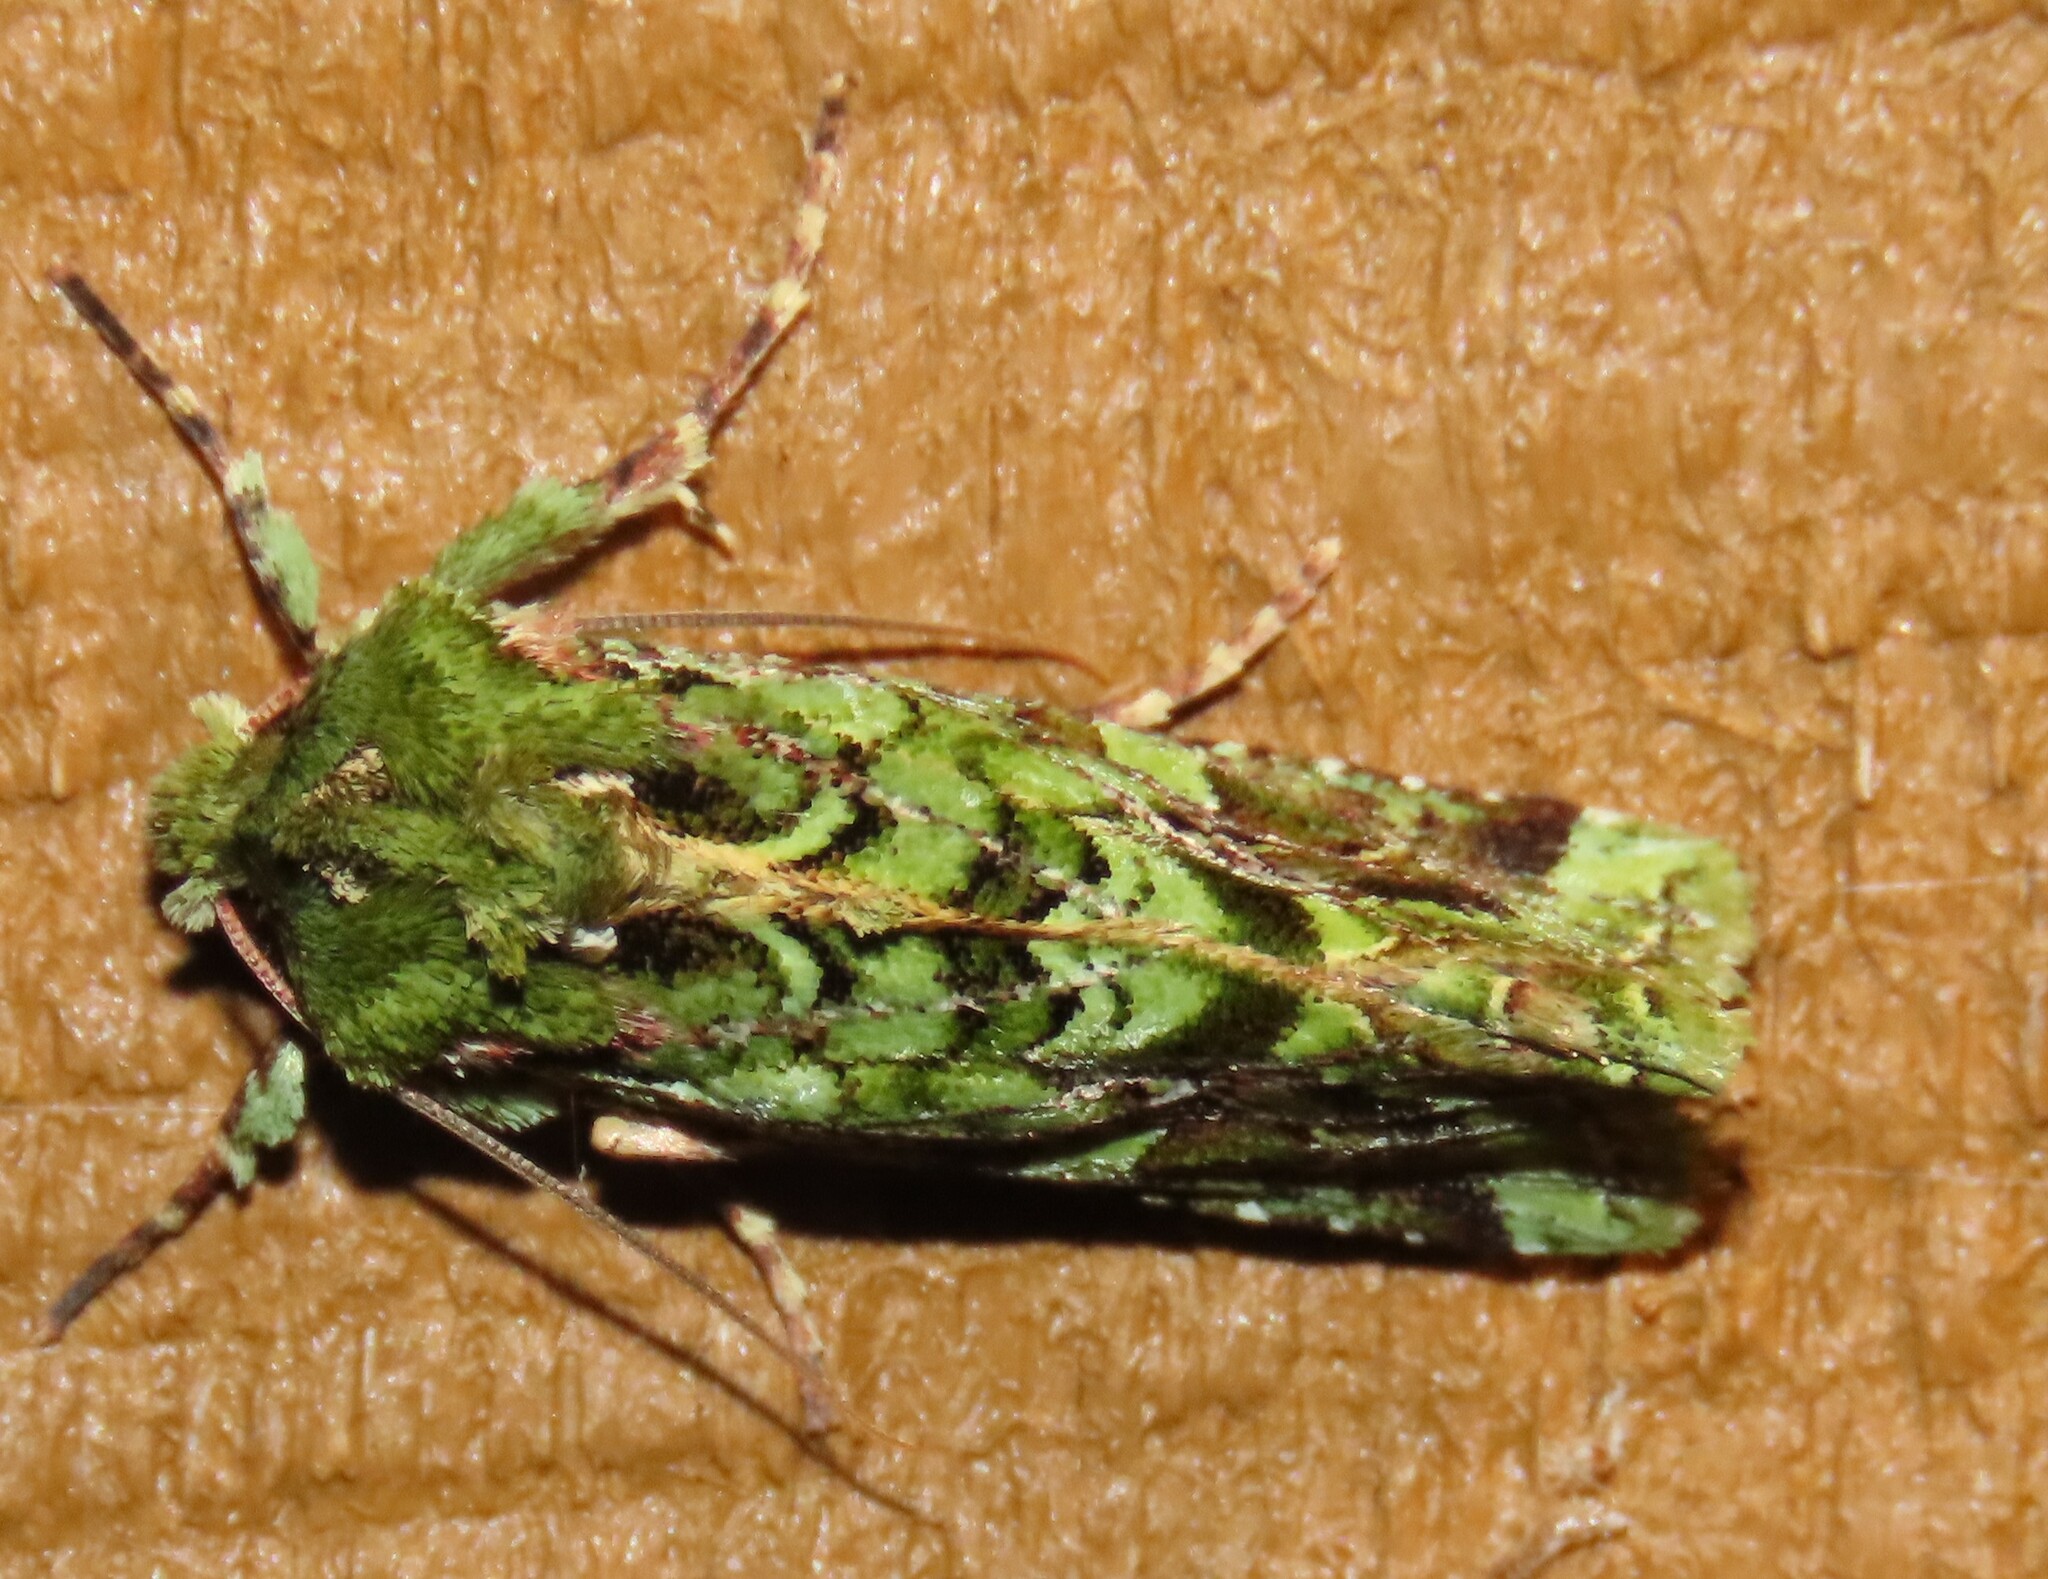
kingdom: Animalia
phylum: Arthropoda
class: Insecta
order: Lepidoptera
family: Noctuidae
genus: Feredayia
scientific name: Feredayia grammosa
